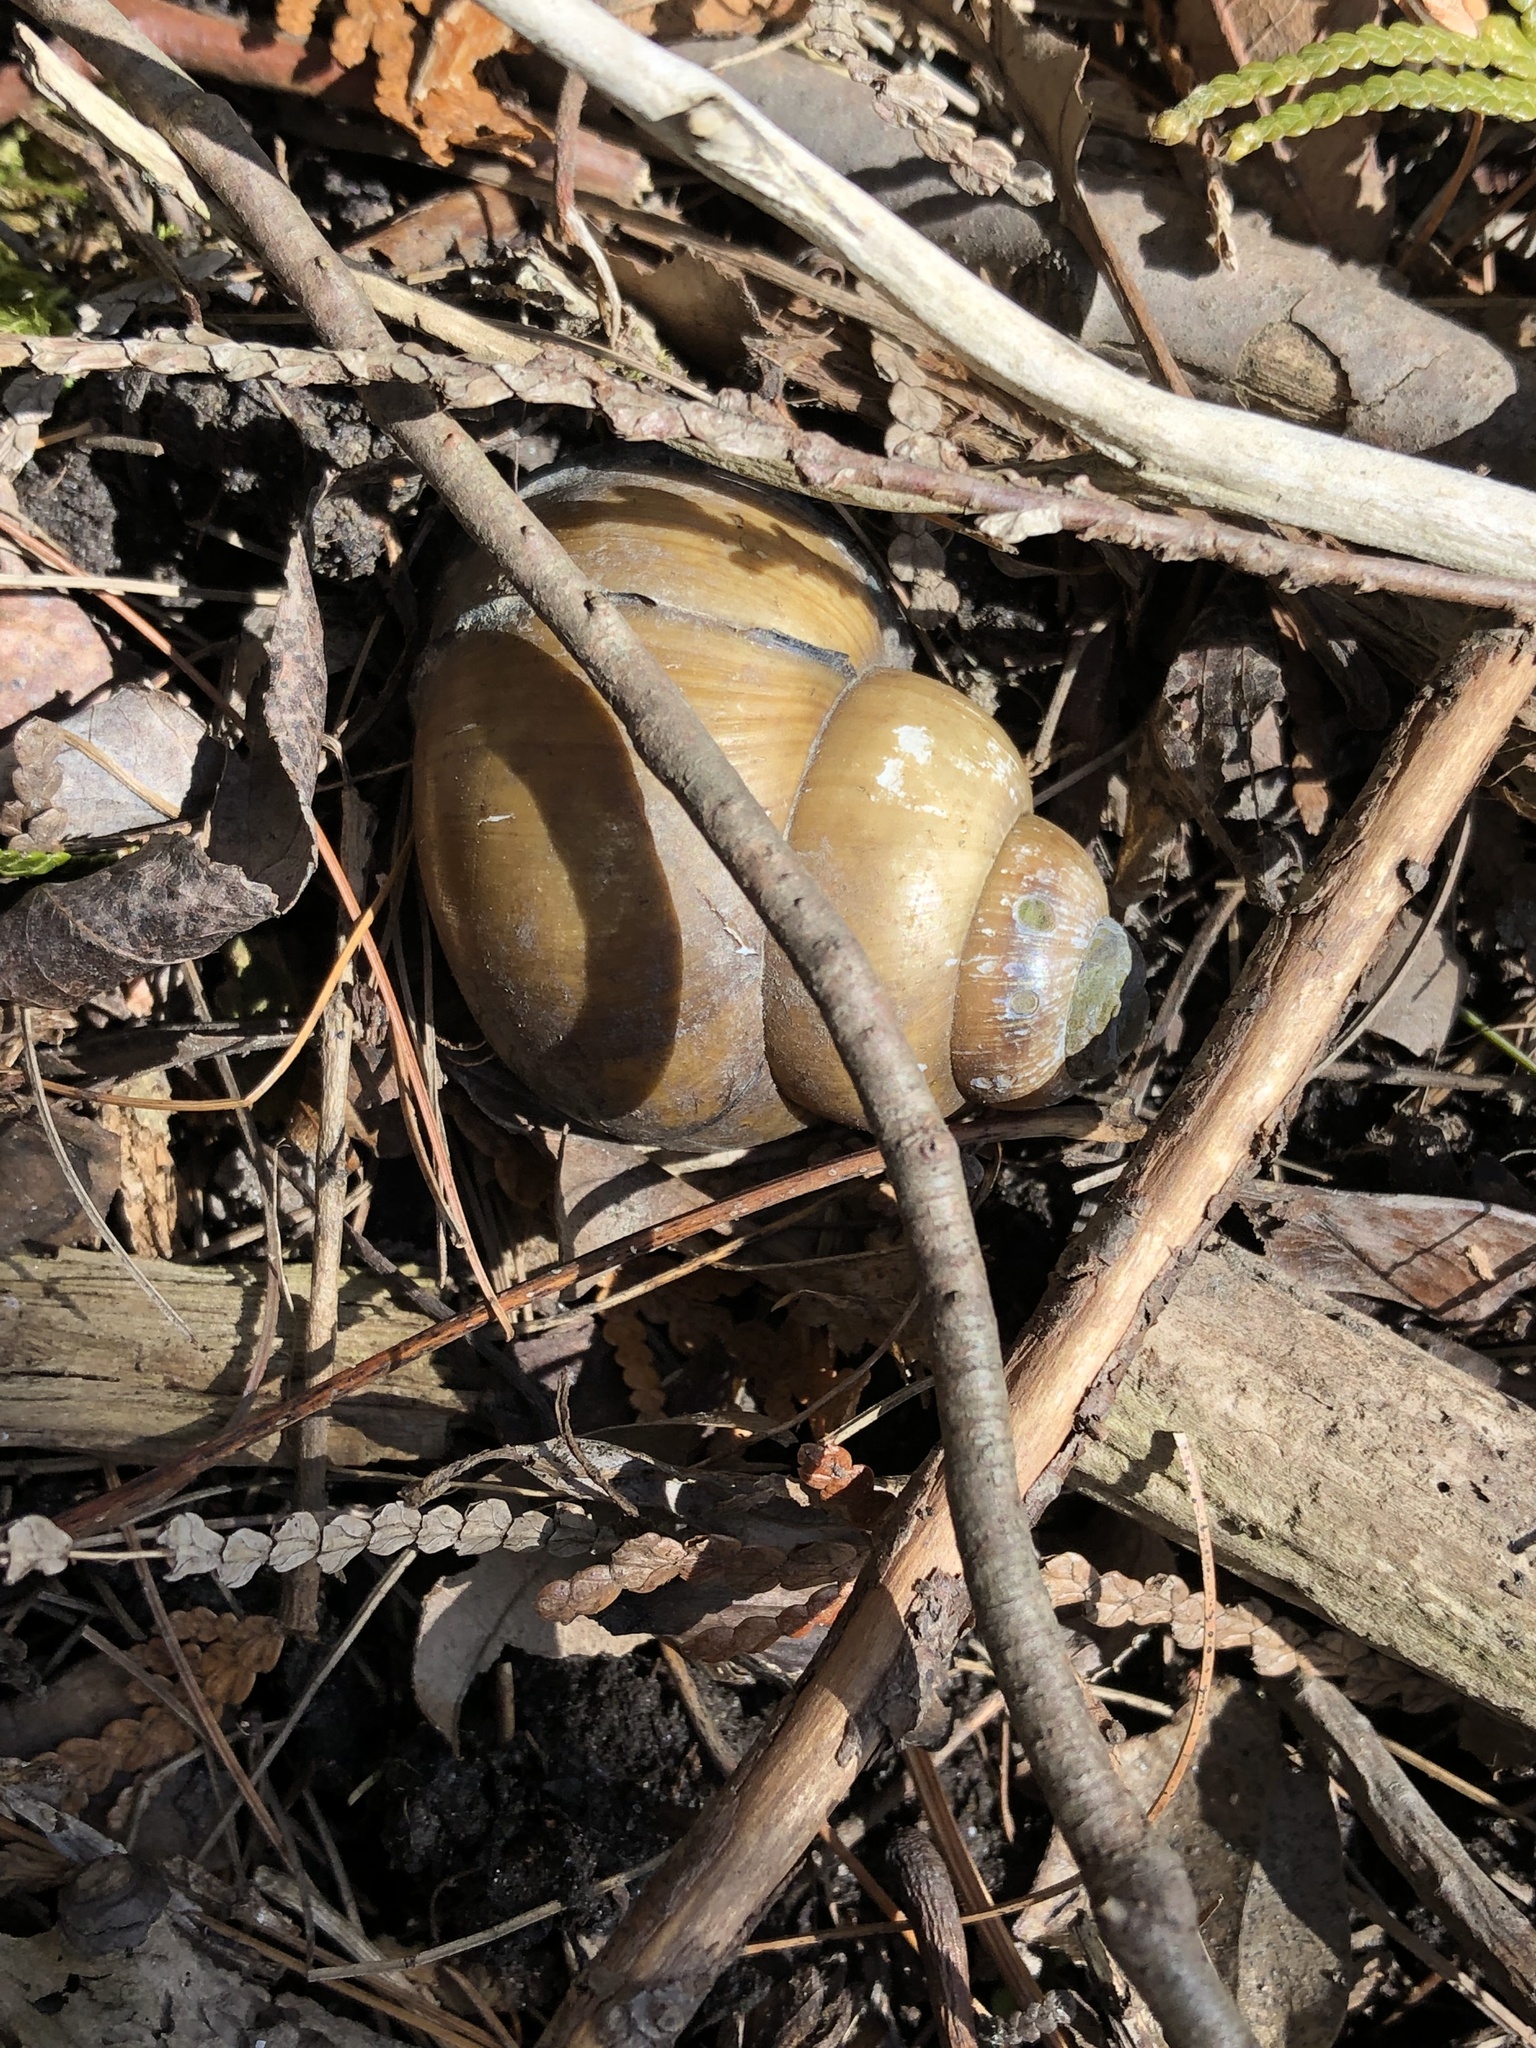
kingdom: Animalia
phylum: Mollusca
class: Gastropoda
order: Architaenioglossa
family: Viviparidae
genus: Cipangopaludina
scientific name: Cipangopaludina chinensis
